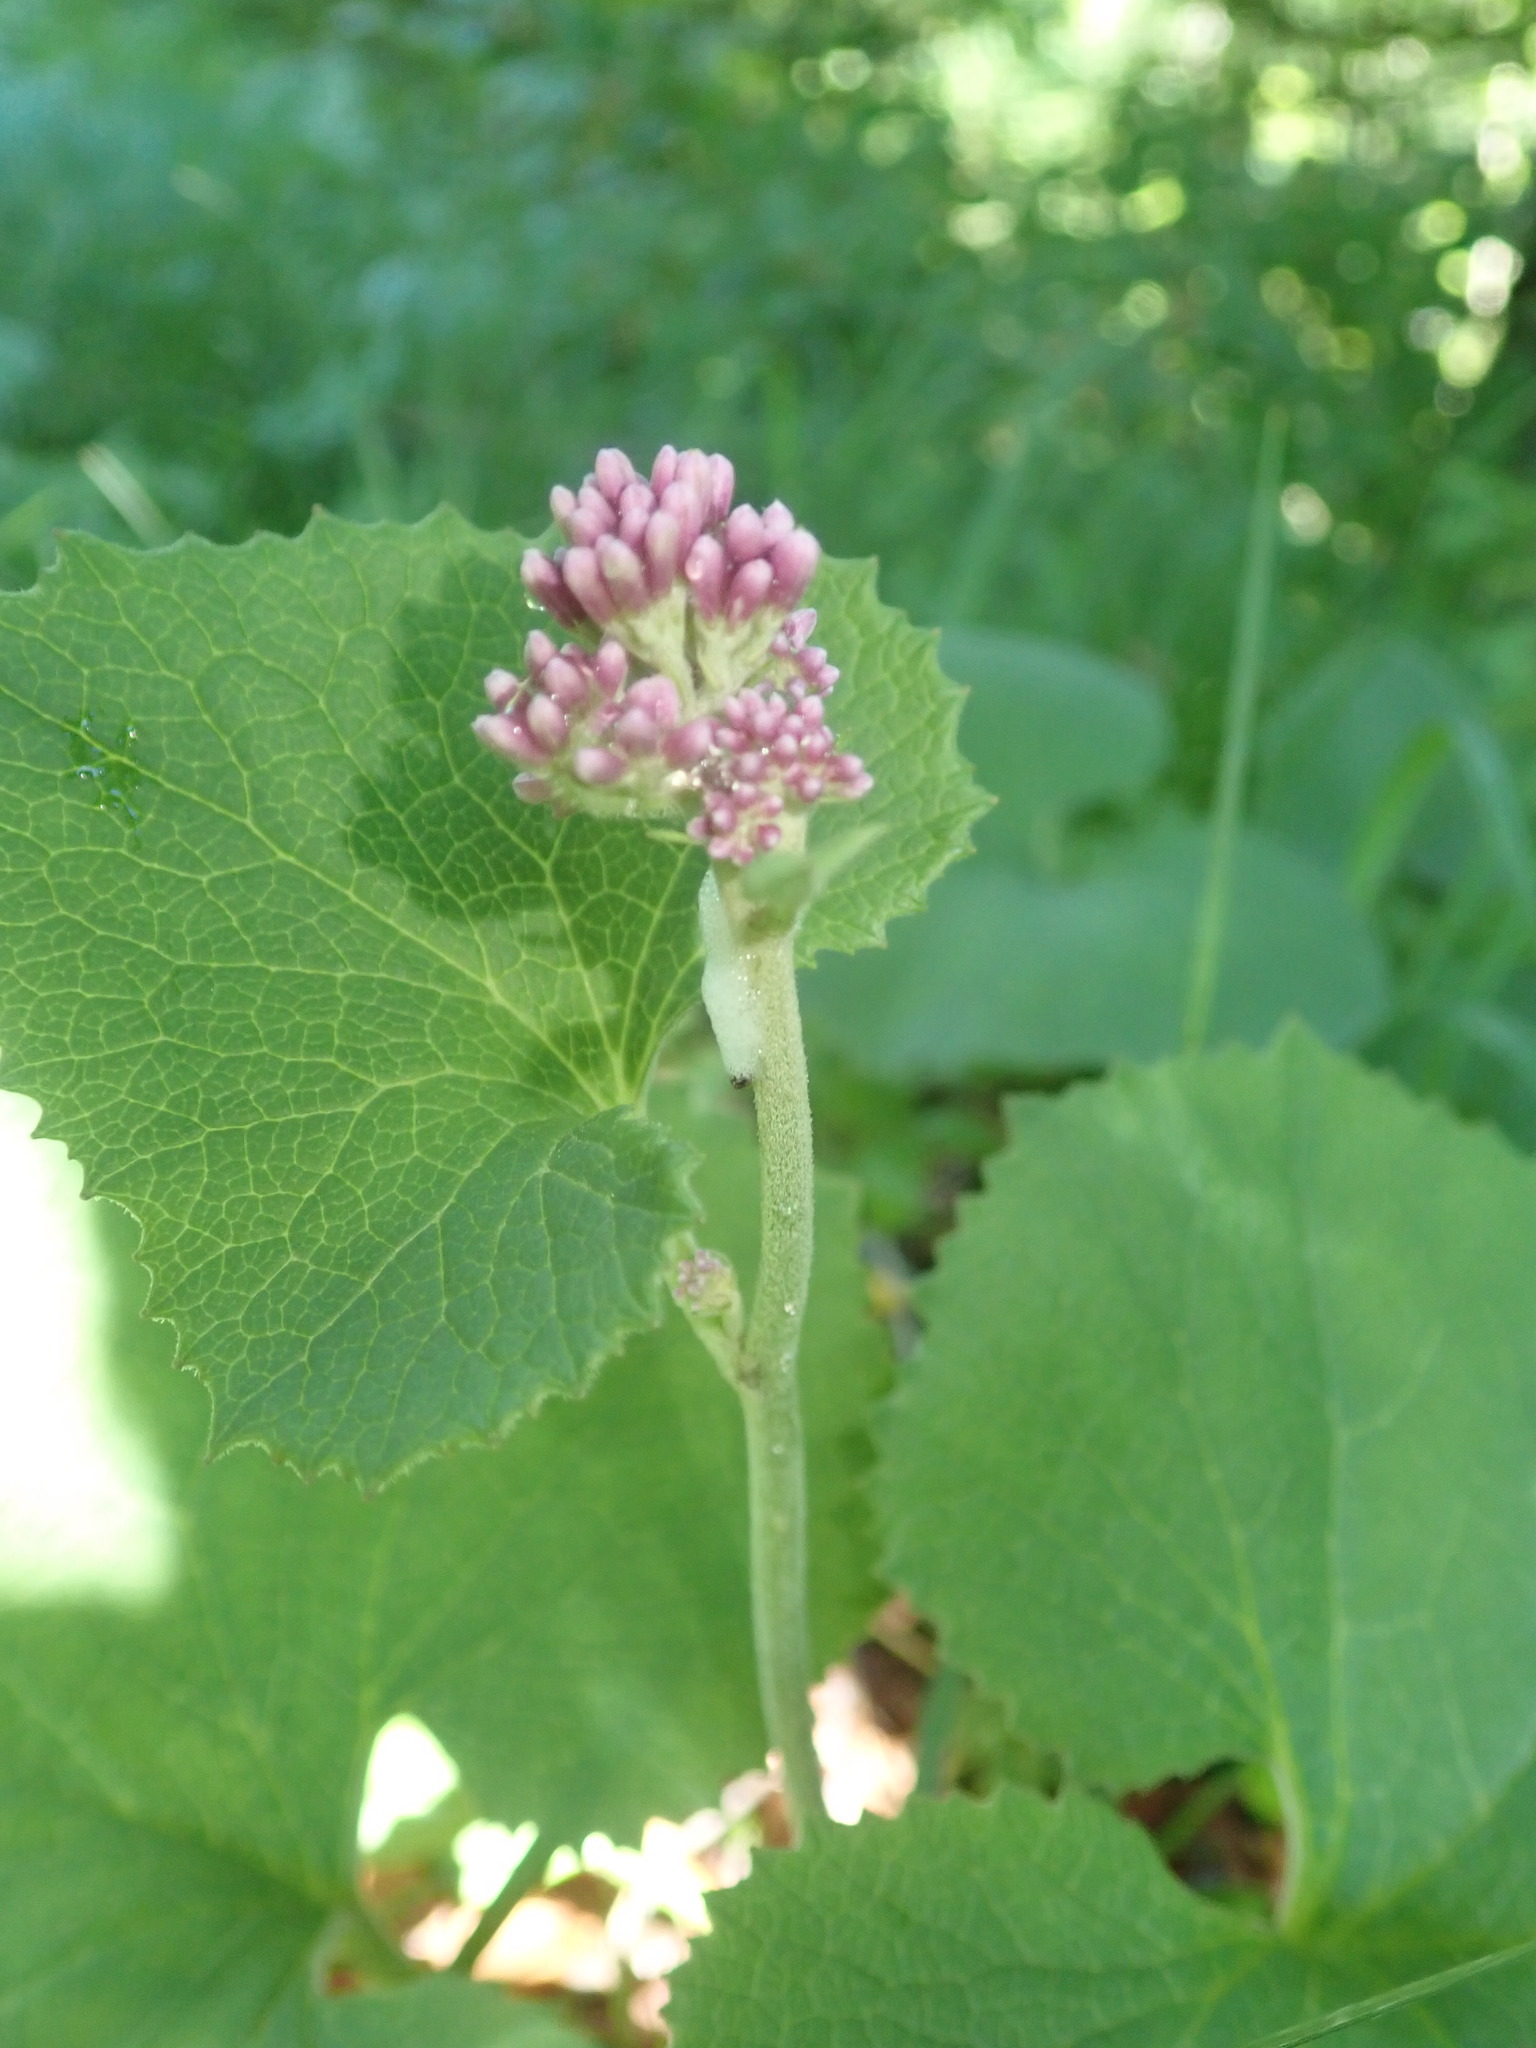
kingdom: Plantae
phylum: Tracheophyta
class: Magnoliopsida
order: Asterales
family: Asteraceae
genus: Adenostyles
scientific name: Adenostyles alpina
